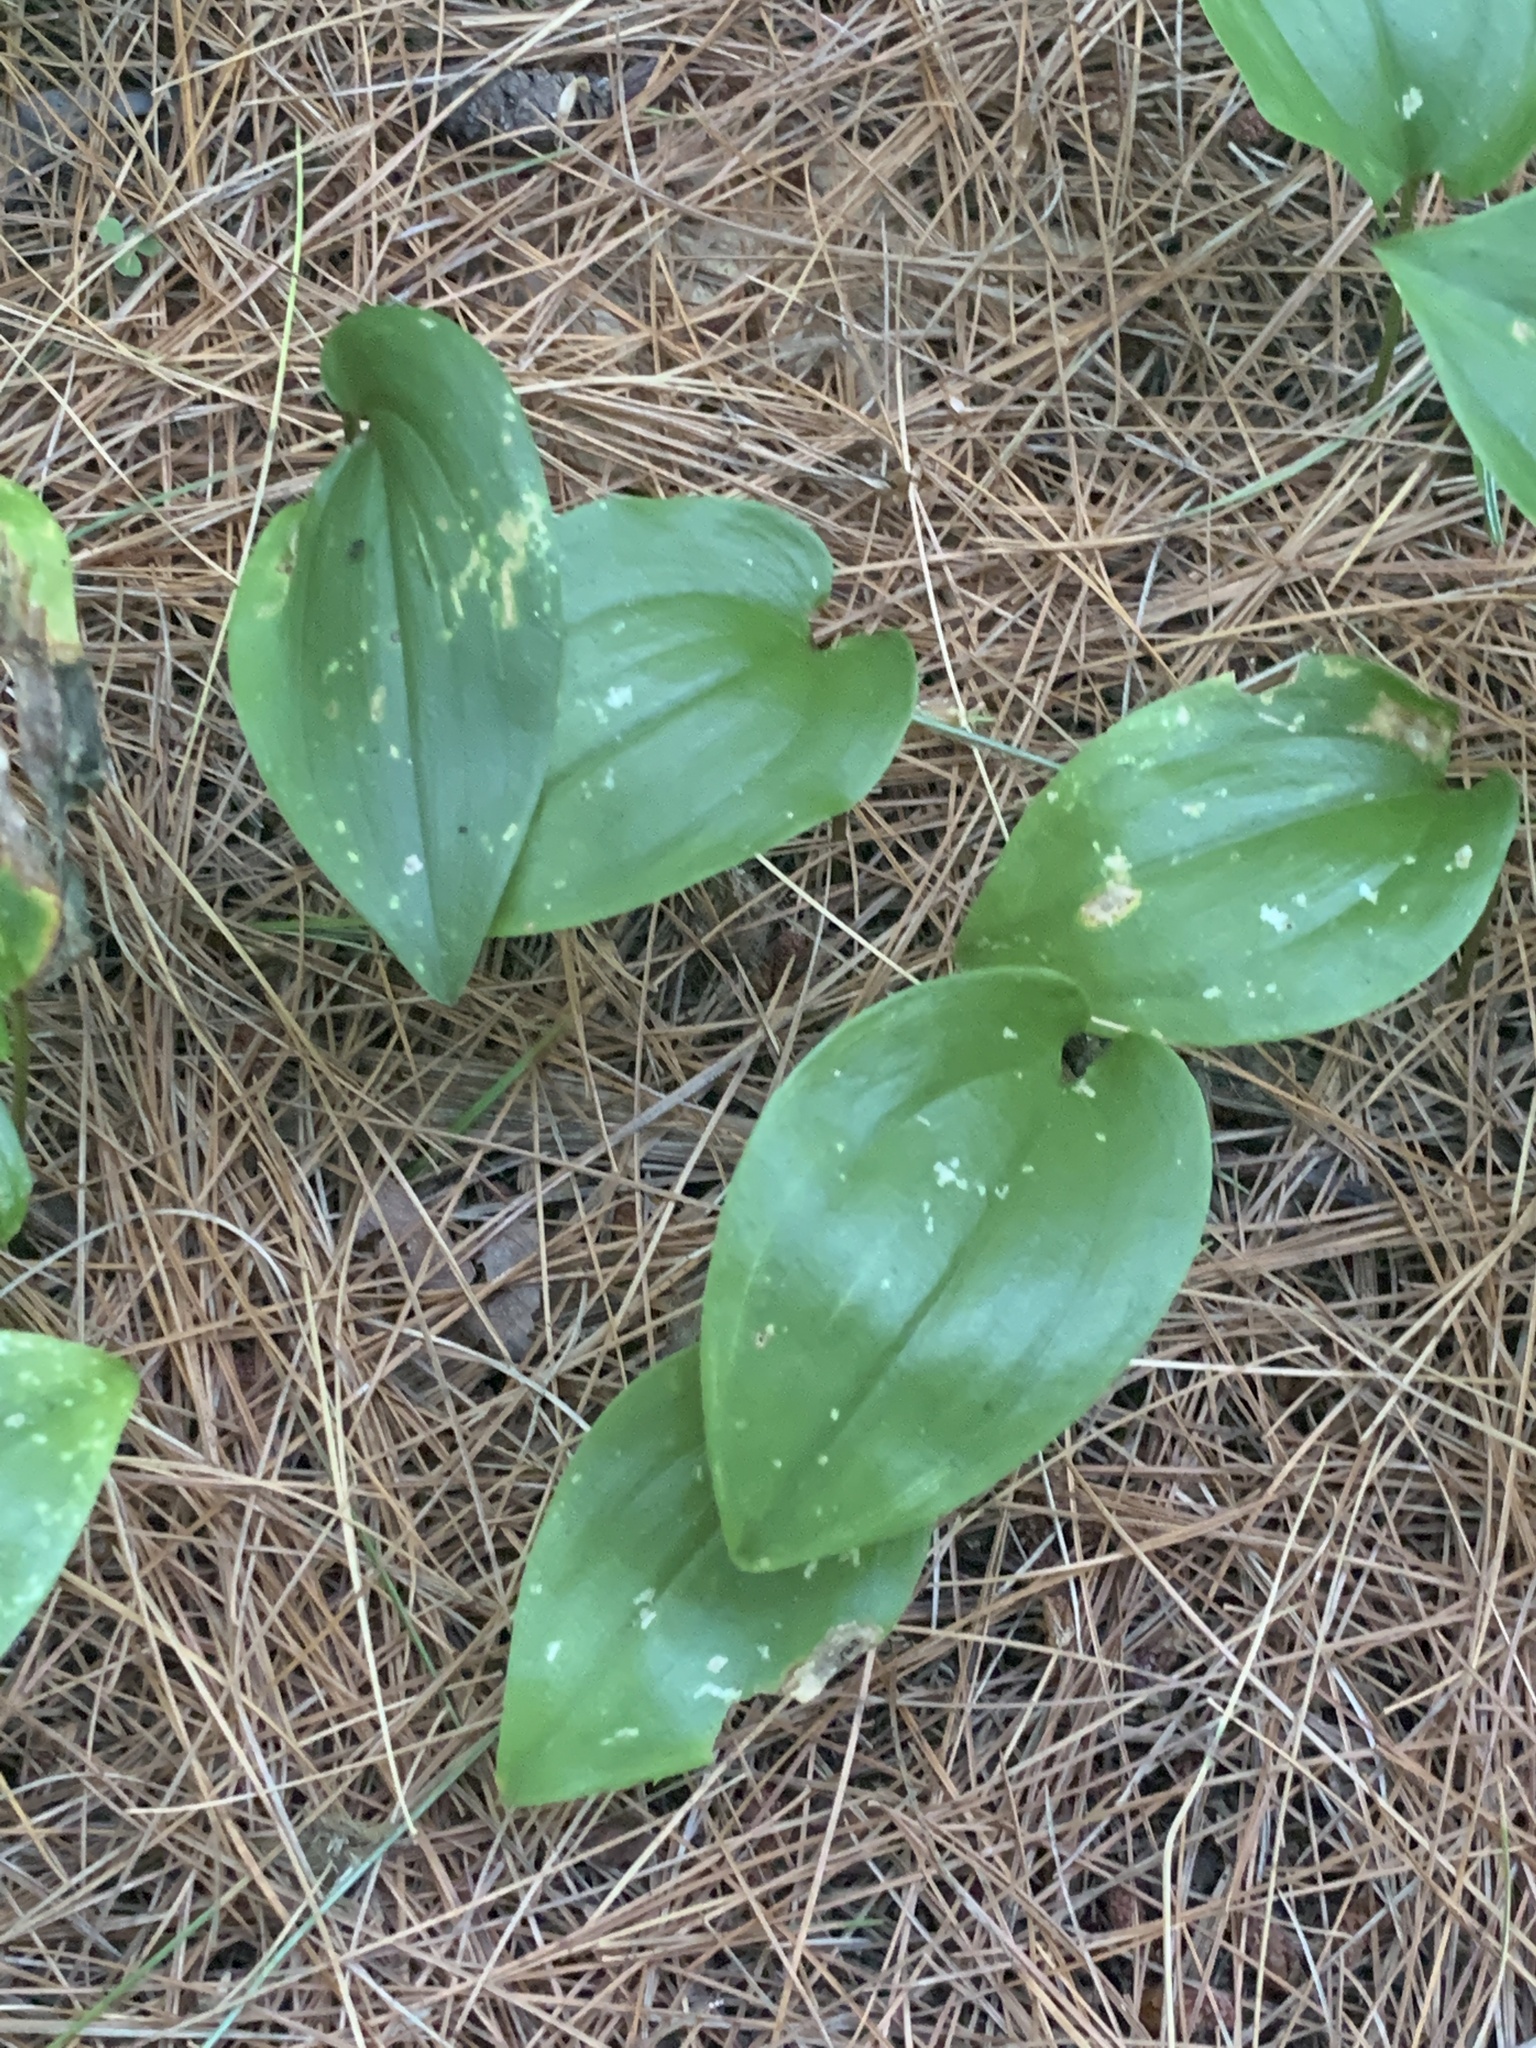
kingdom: Plantae
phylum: Tracheophyta
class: Liliopsida
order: Asparagales
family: Asparagaceae
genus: Maianthemum
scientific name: Maianthemum canadense
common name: False lily-of-the-valley
